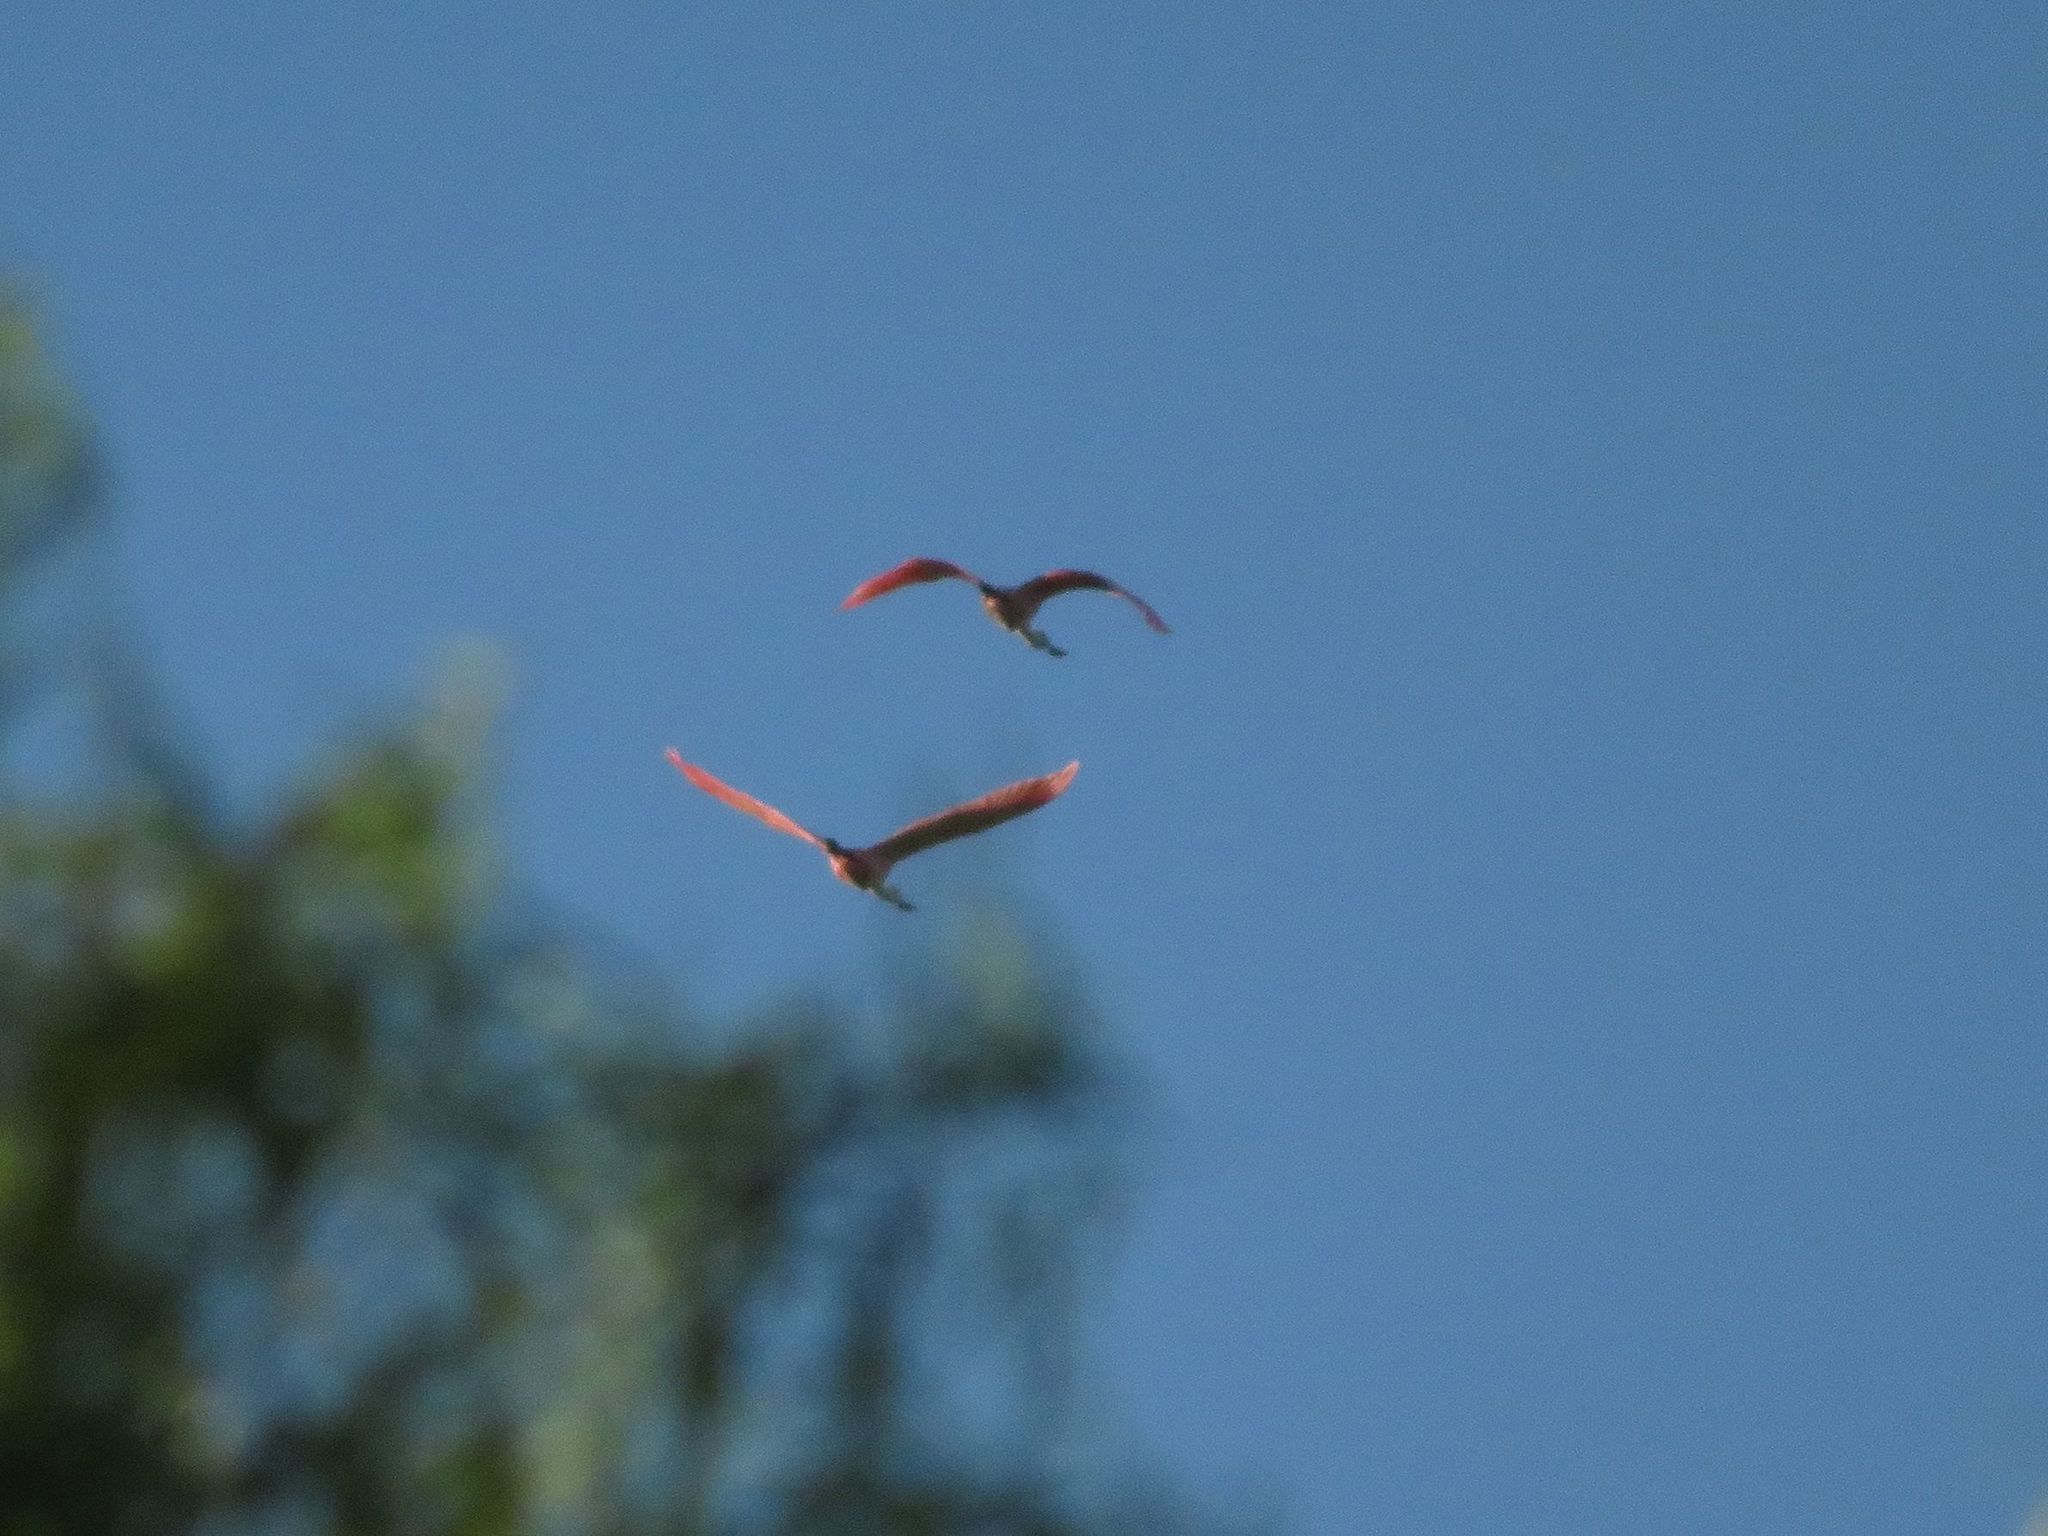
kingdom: Animalia
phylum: Chordata
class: Aves
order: Pelecaniformes
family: Threskiornithidae
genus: Platalea
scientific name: Platalea ajaja
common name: Roseate spoonbill
